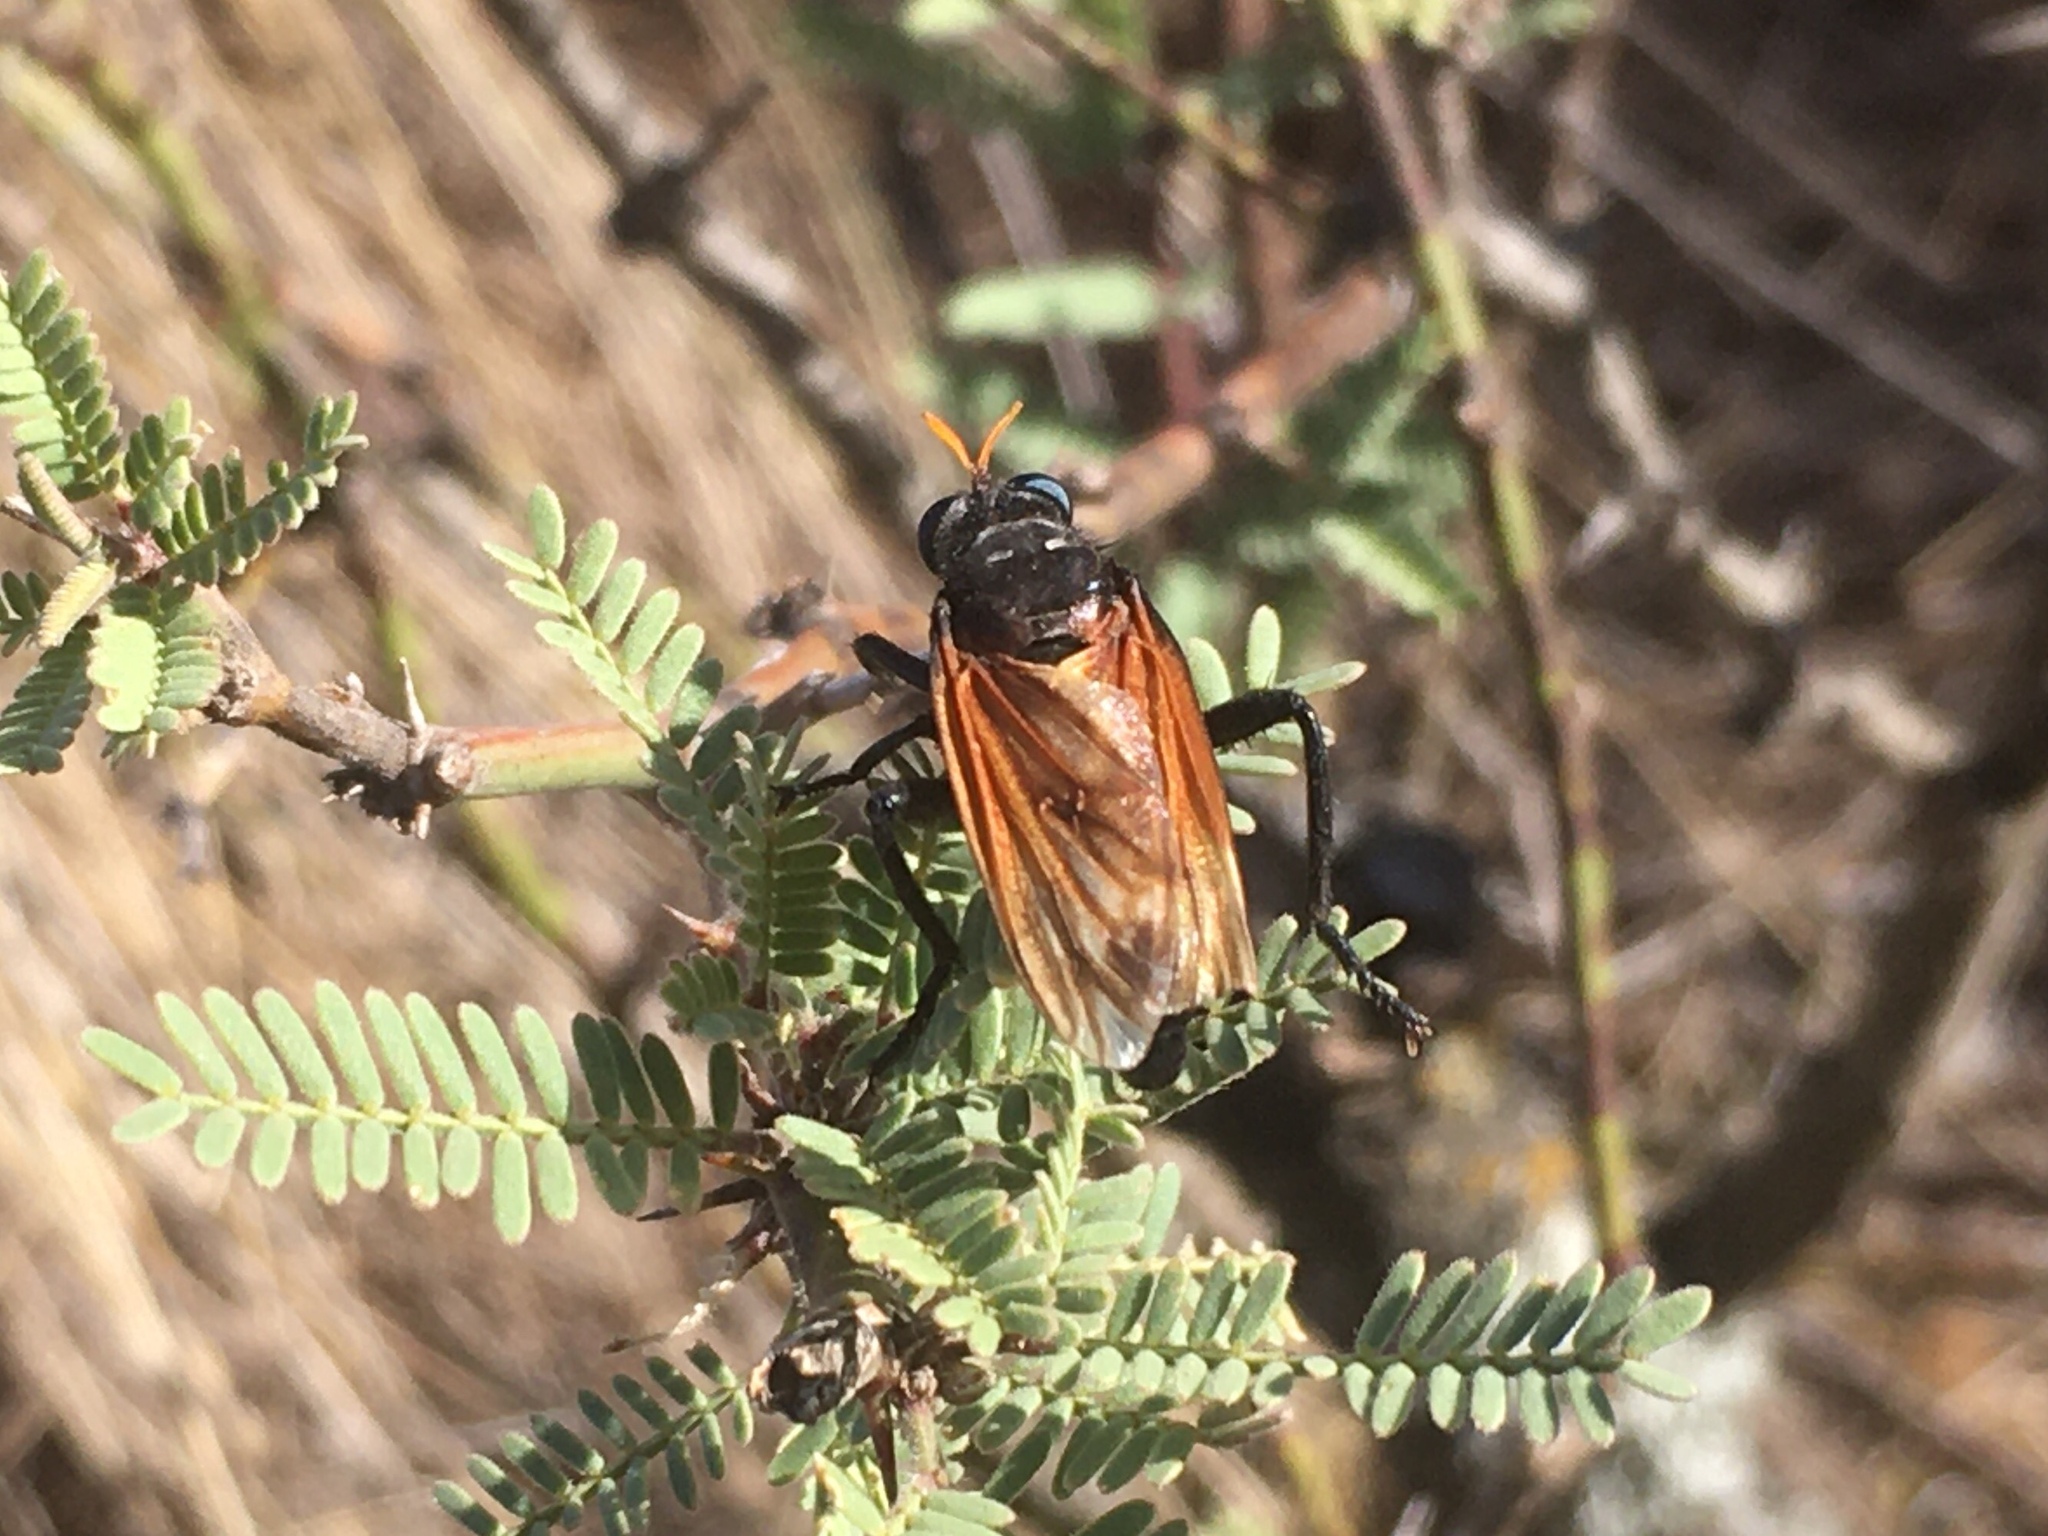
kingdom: Animalia
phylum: Arthropoda
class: Insecta
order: Diptera
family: Asilidae
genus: Prolepsis
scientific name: Prolepsis lucifer
